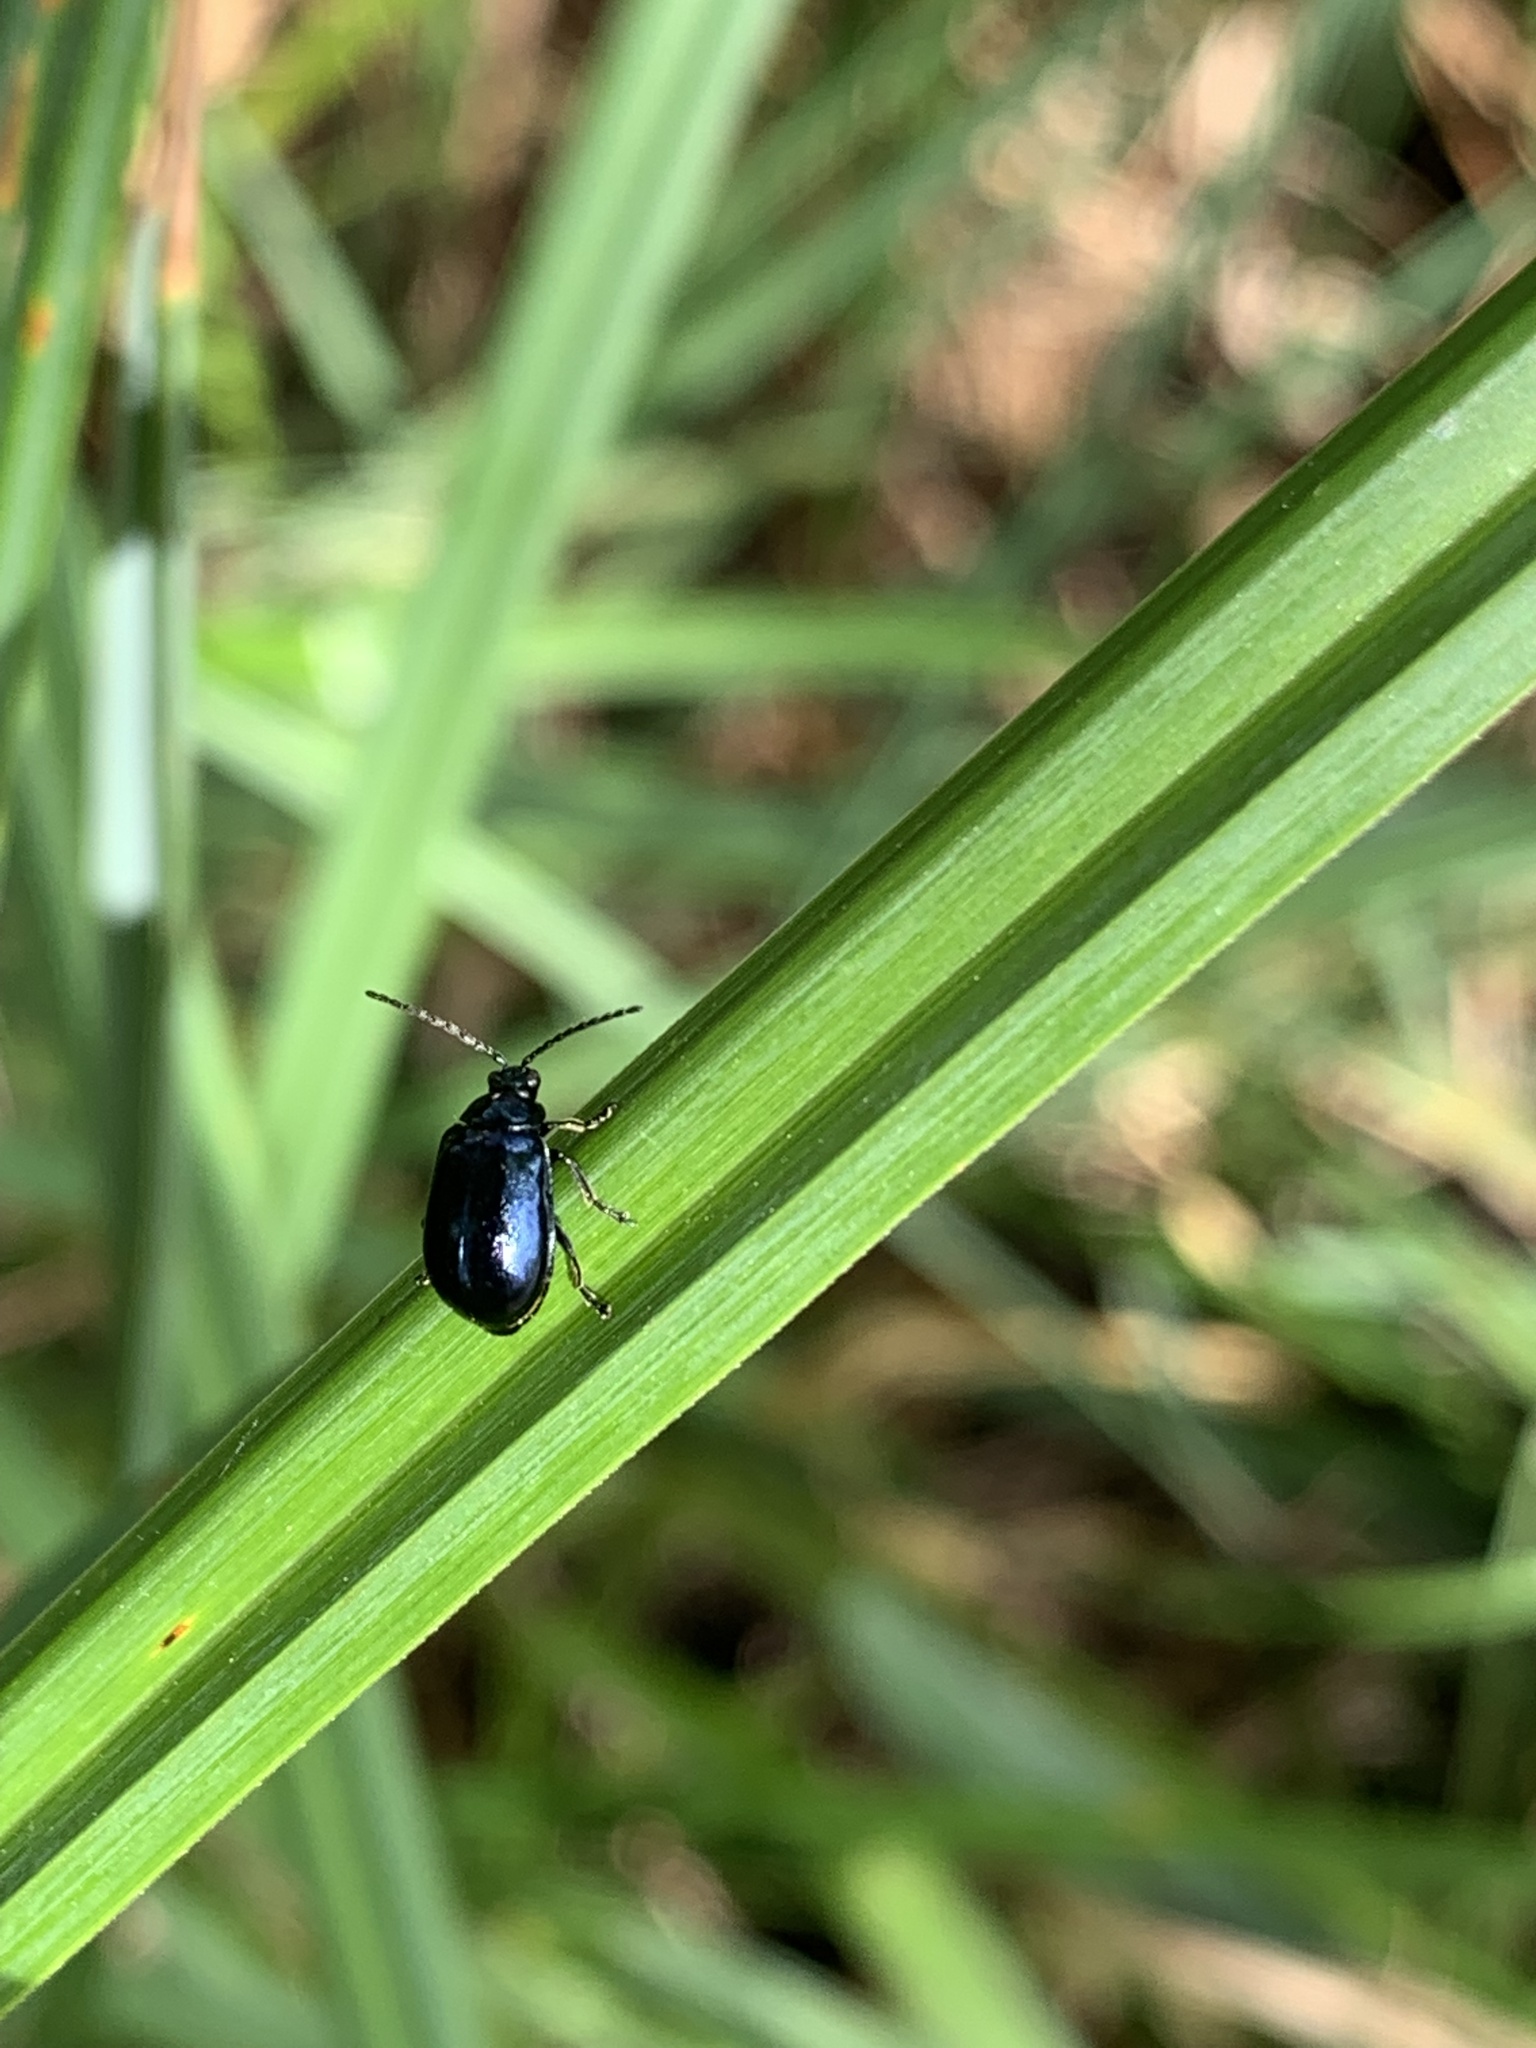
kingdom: Animalia
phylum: Arthropoda
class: Insecta
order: Coleoptera
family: Chrysomelidae
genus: Agelastica
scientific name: Agelastica alni
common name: Alder leaf beetle
